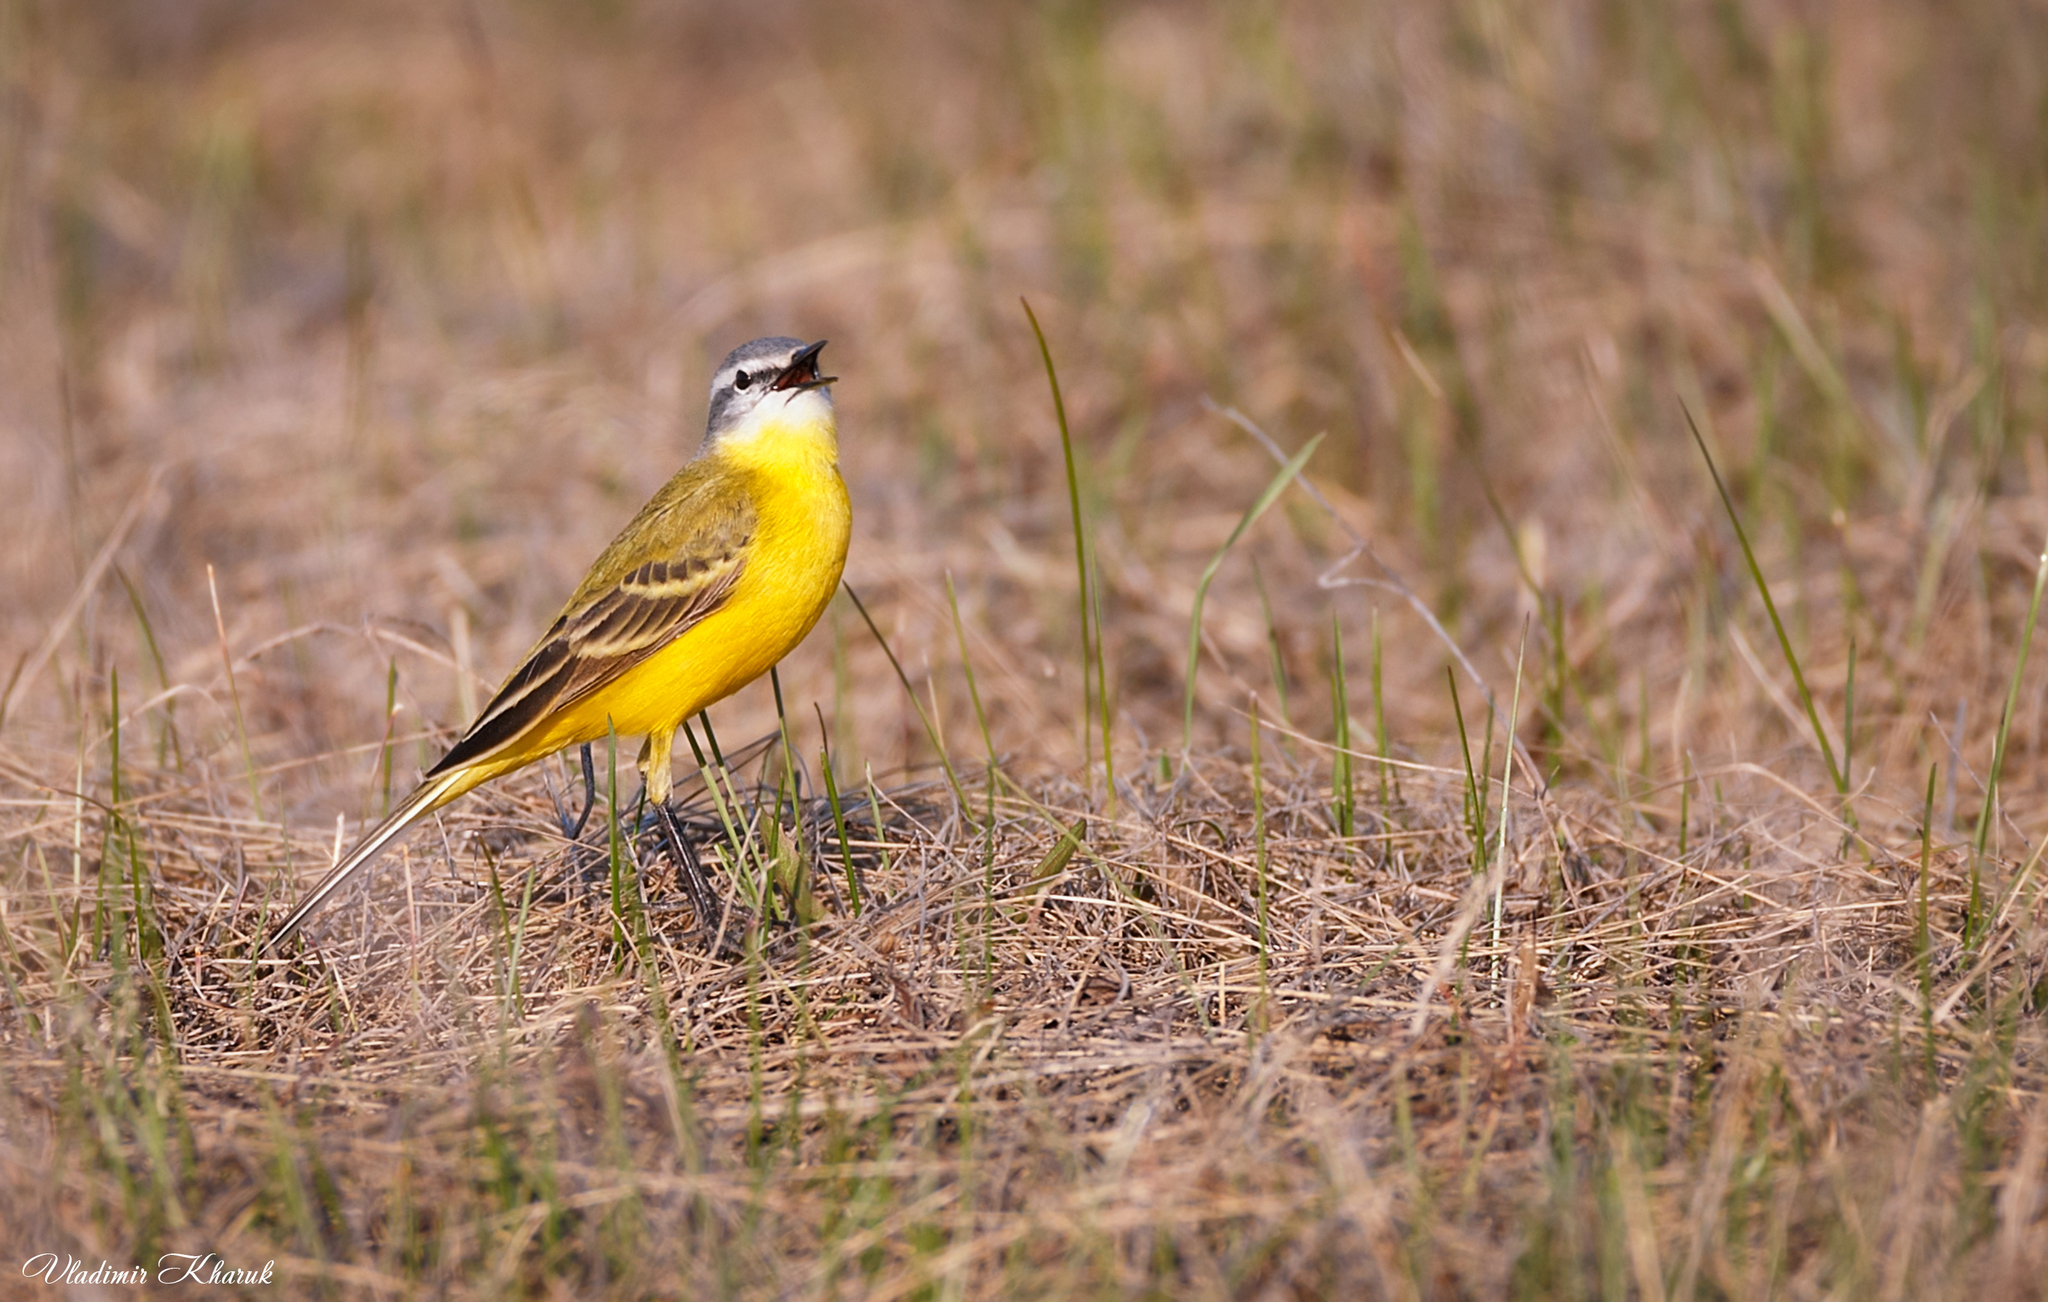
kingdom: Animalia
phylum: Chordata
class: Aves
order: Passeriformes
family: Motacillidae
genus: Motacilla
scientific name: Motacilla flava
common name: Western yellow wagtail
